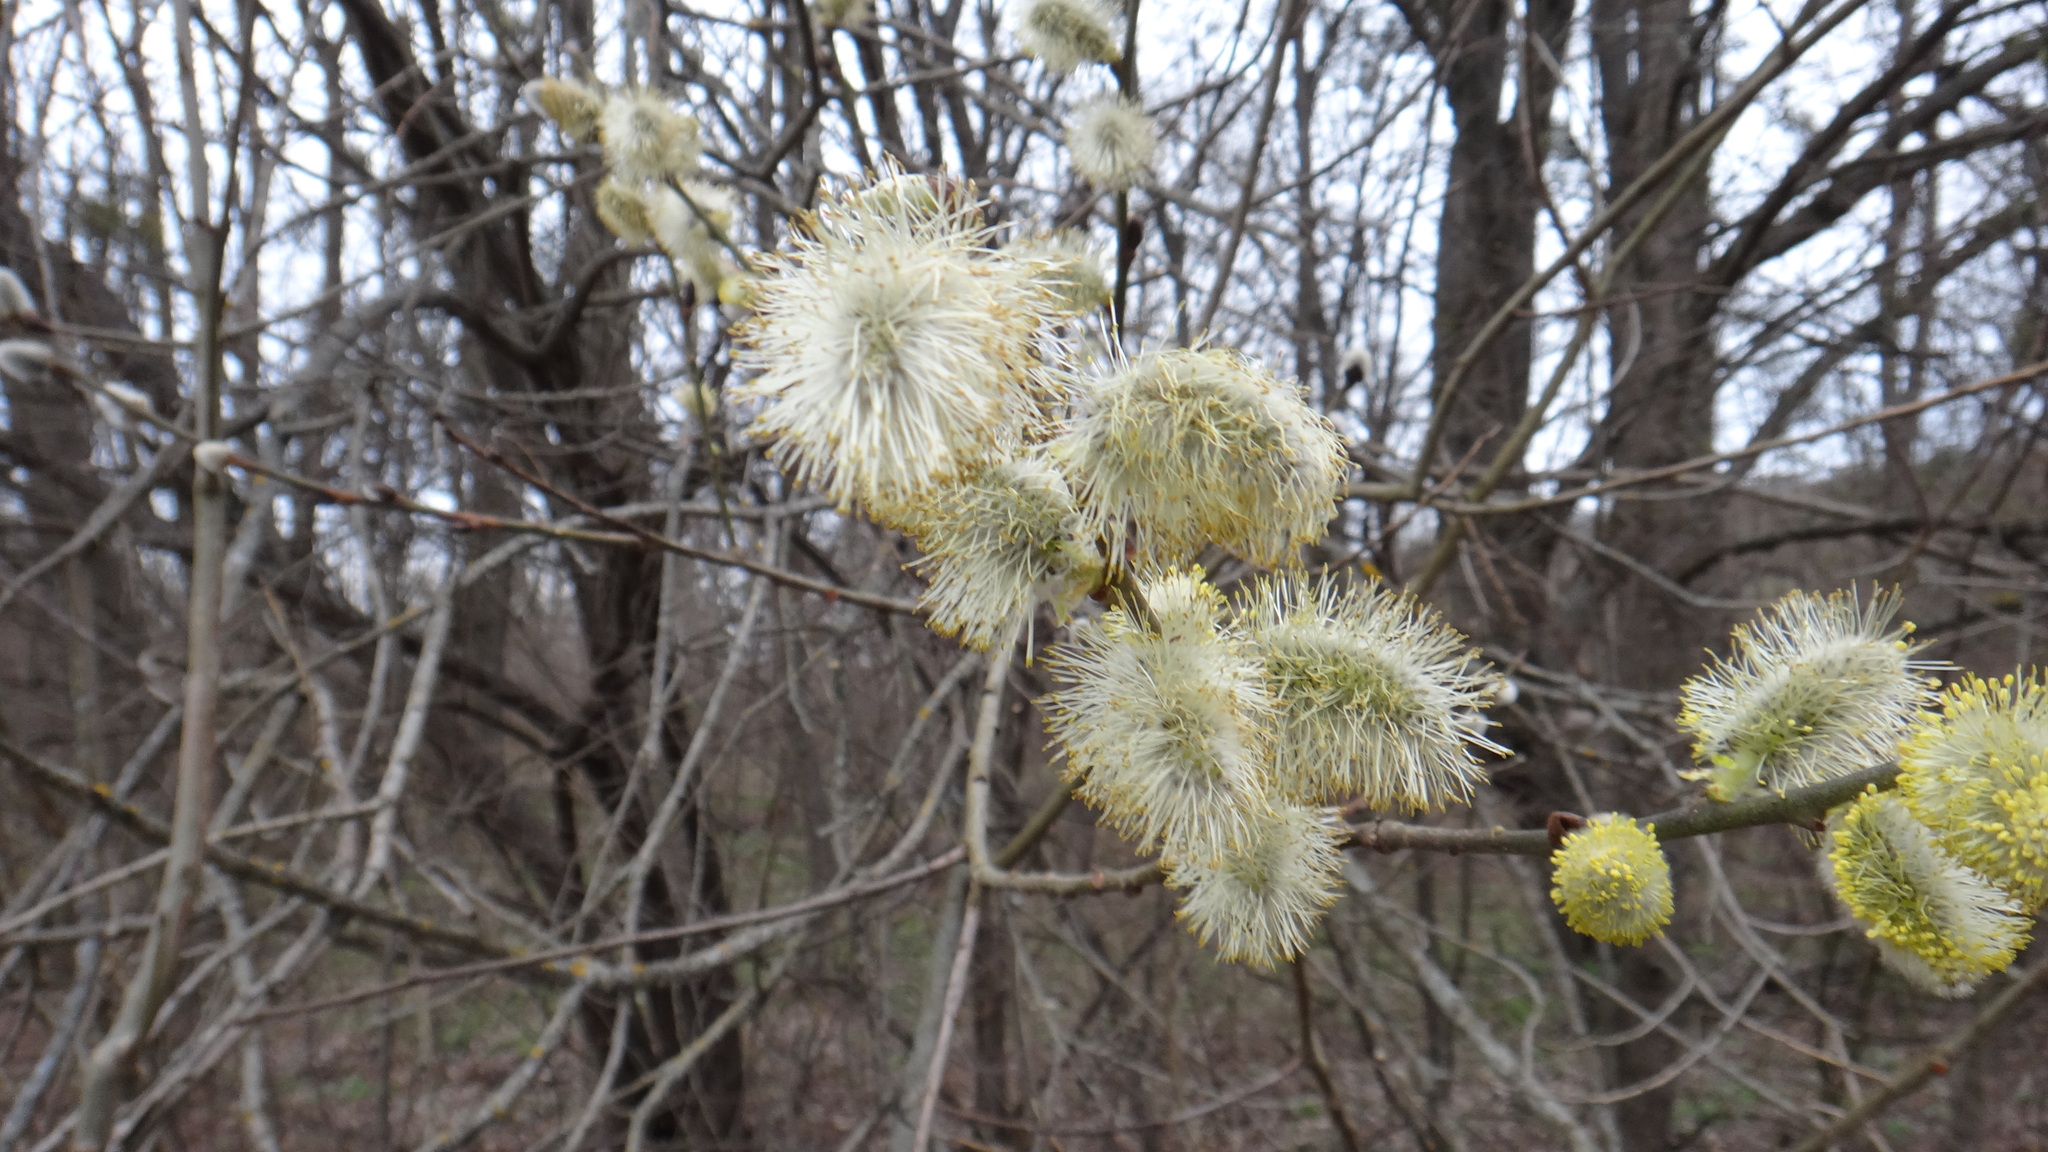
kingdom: Plantae
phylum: Tracheophyta
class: Magnoliopsida
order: Malpighiales
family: Salicaceae
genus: Salix
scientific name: Salix caprea
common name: Goat willow
